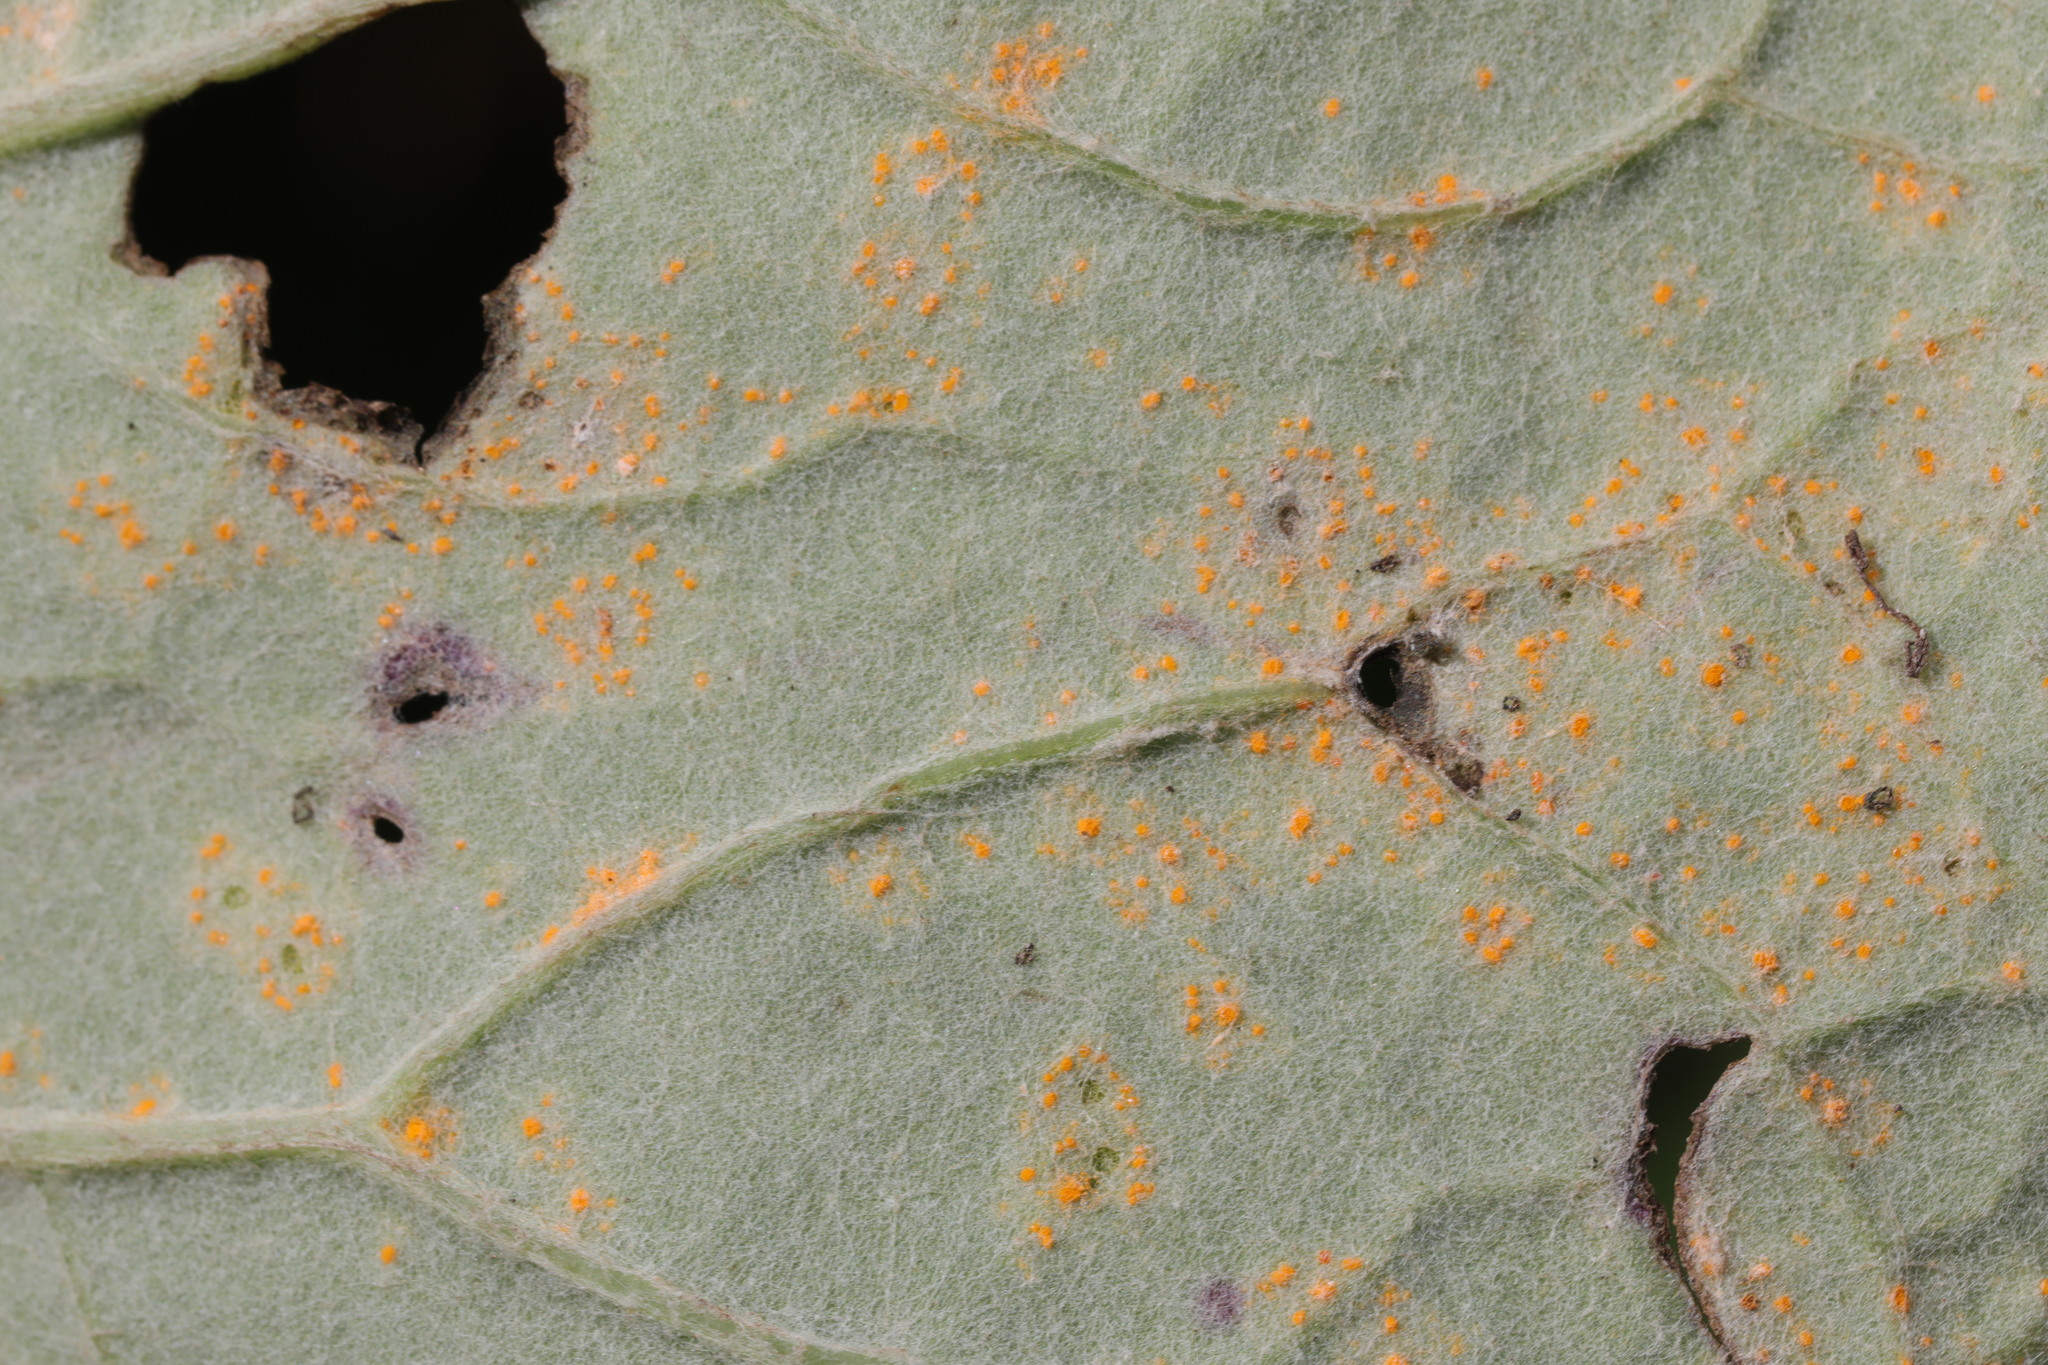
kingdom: Fungi
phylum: Basidiomycota
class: Pucciniomycetes
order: Pucciniales
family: Coleosporiaceae
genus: Coleosporium
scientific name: Coleosporium tussilaginis
